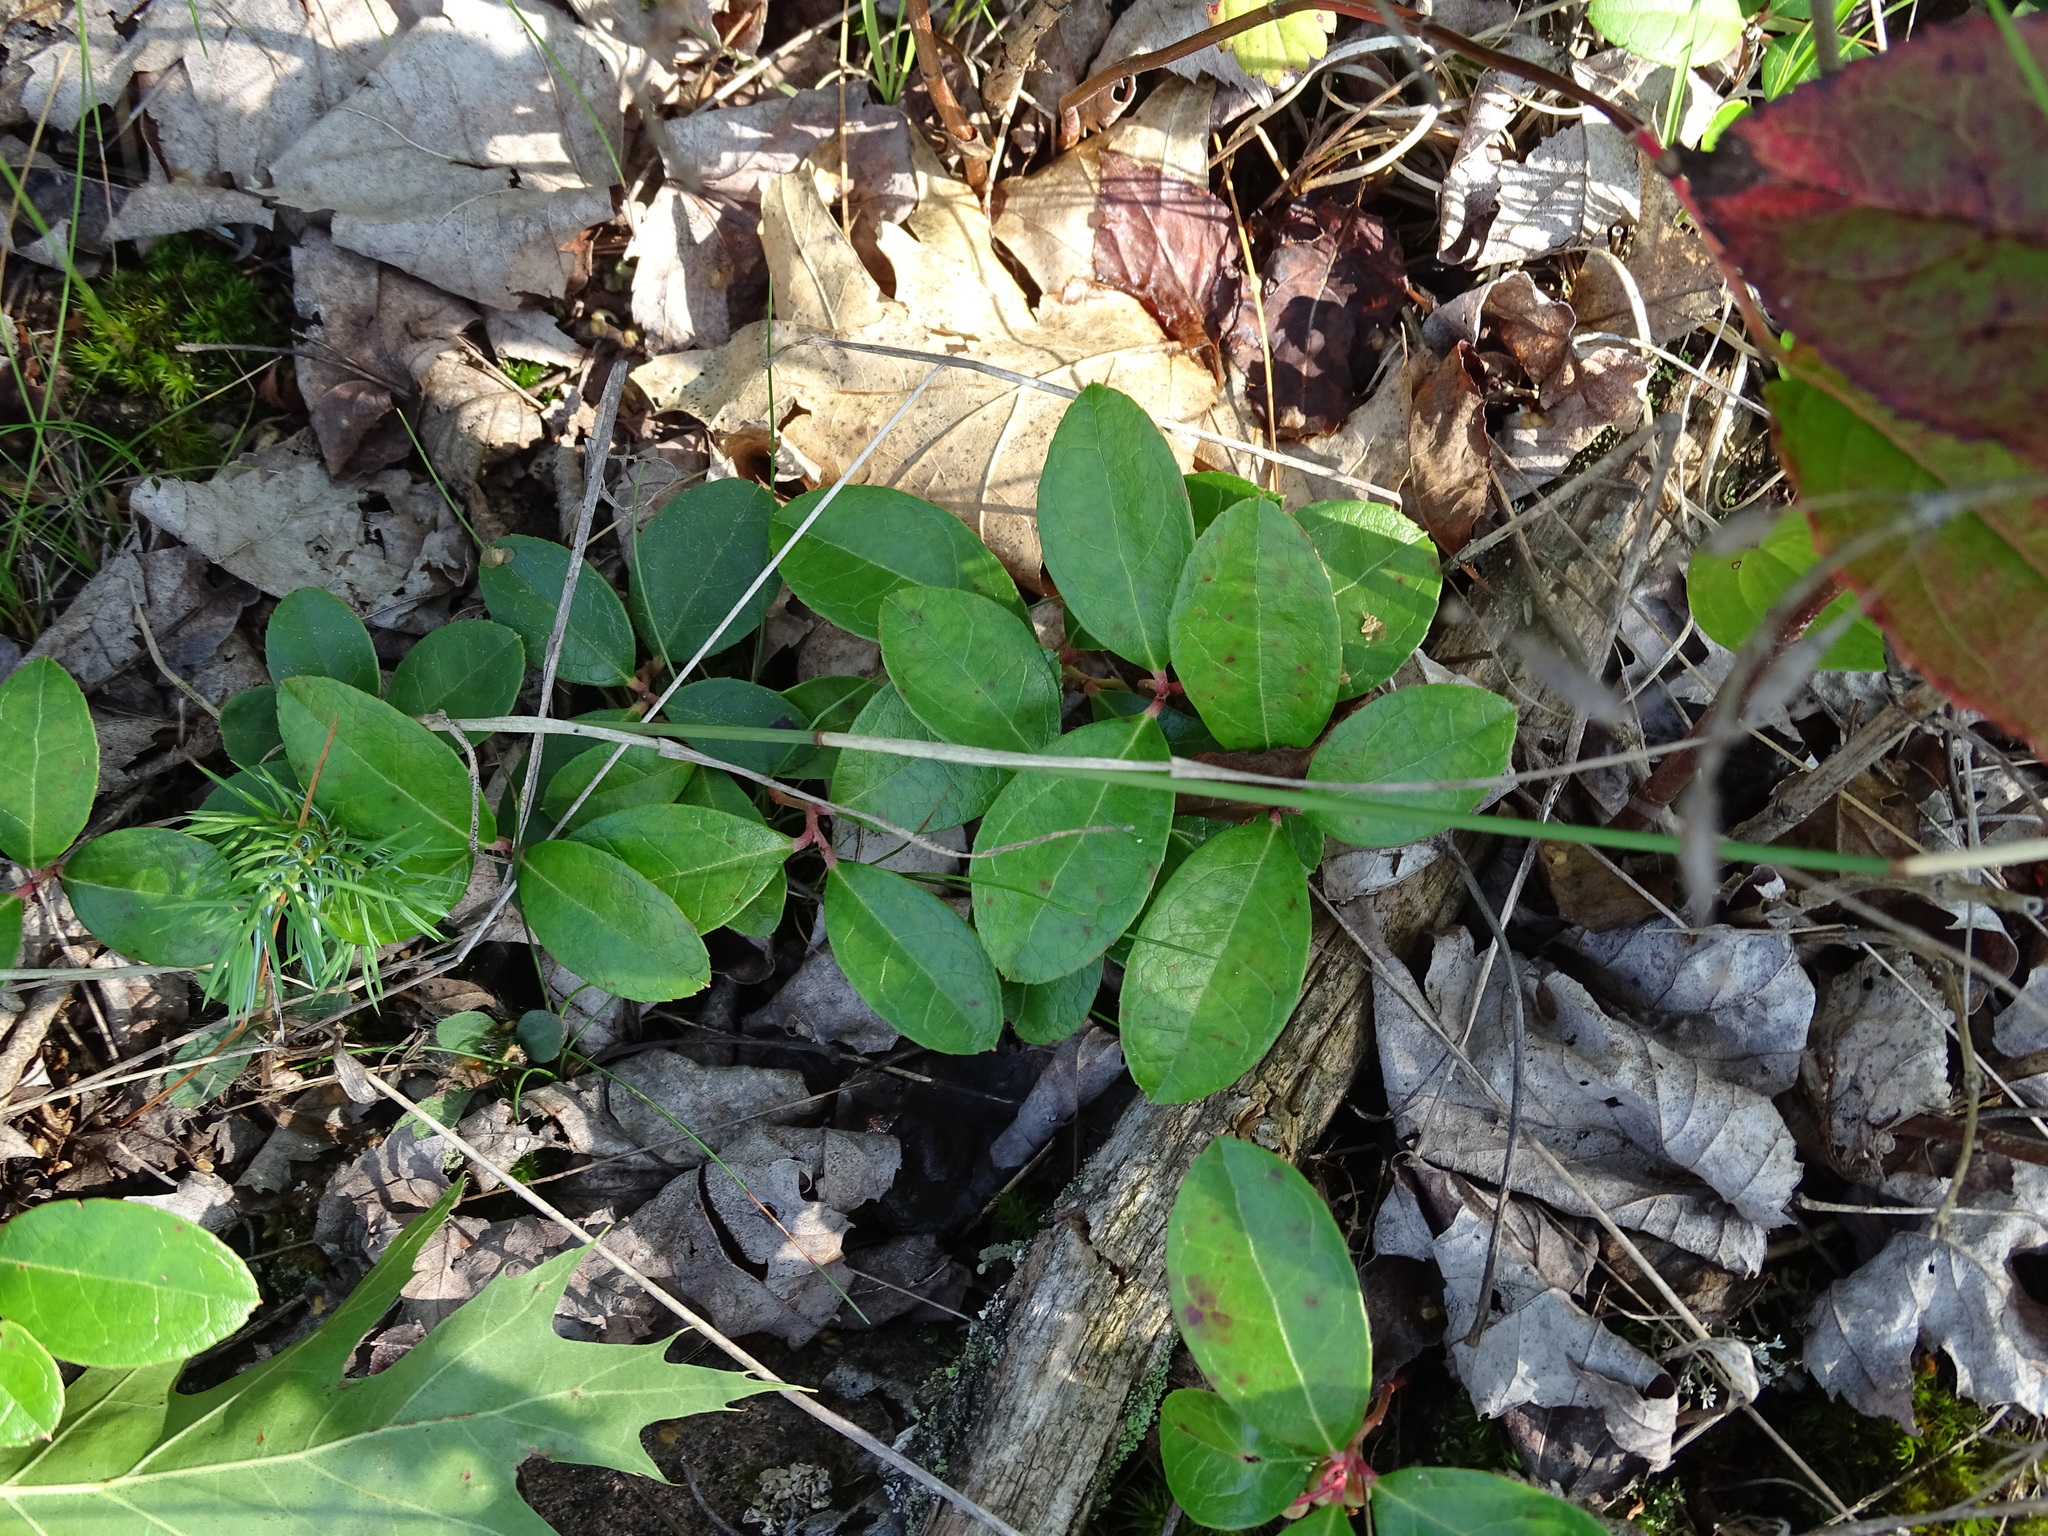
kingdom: Plantae
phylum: Tracheophyta
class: Magnoliopsida
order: Ericales
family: Ericaceae
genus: Gaultheria
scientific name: Gaultheria procumbens
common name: Checkerberry
